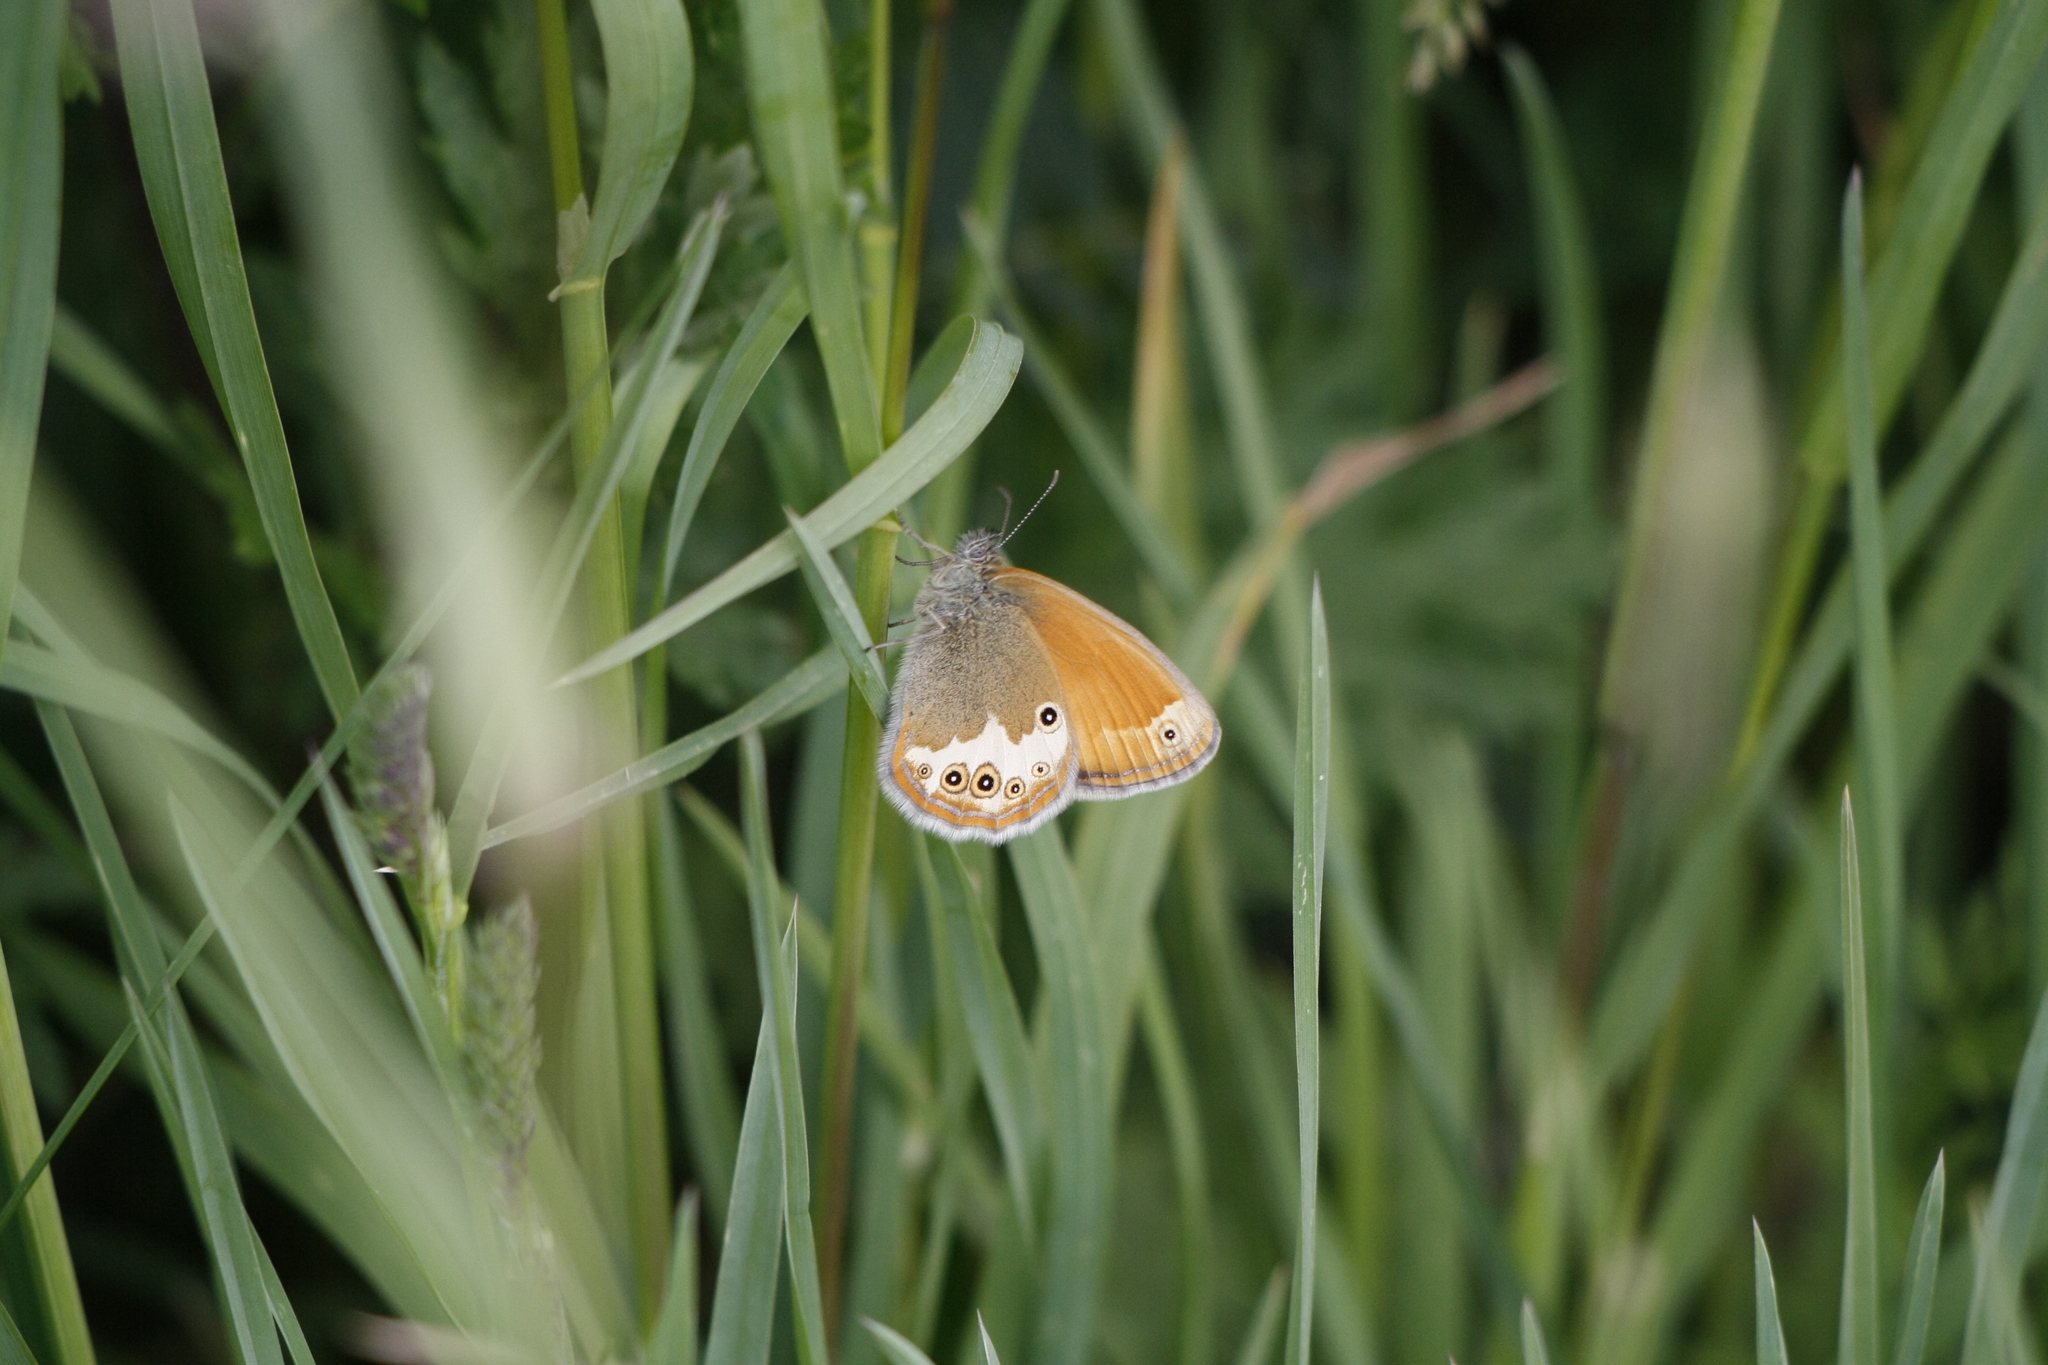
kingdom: Animalia
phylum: Arthropoda
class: Insecta
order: Lepidoptera
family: Nymphalidae
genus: Coenonympha
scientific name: Coenonympha arcania
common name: Pearly heath
